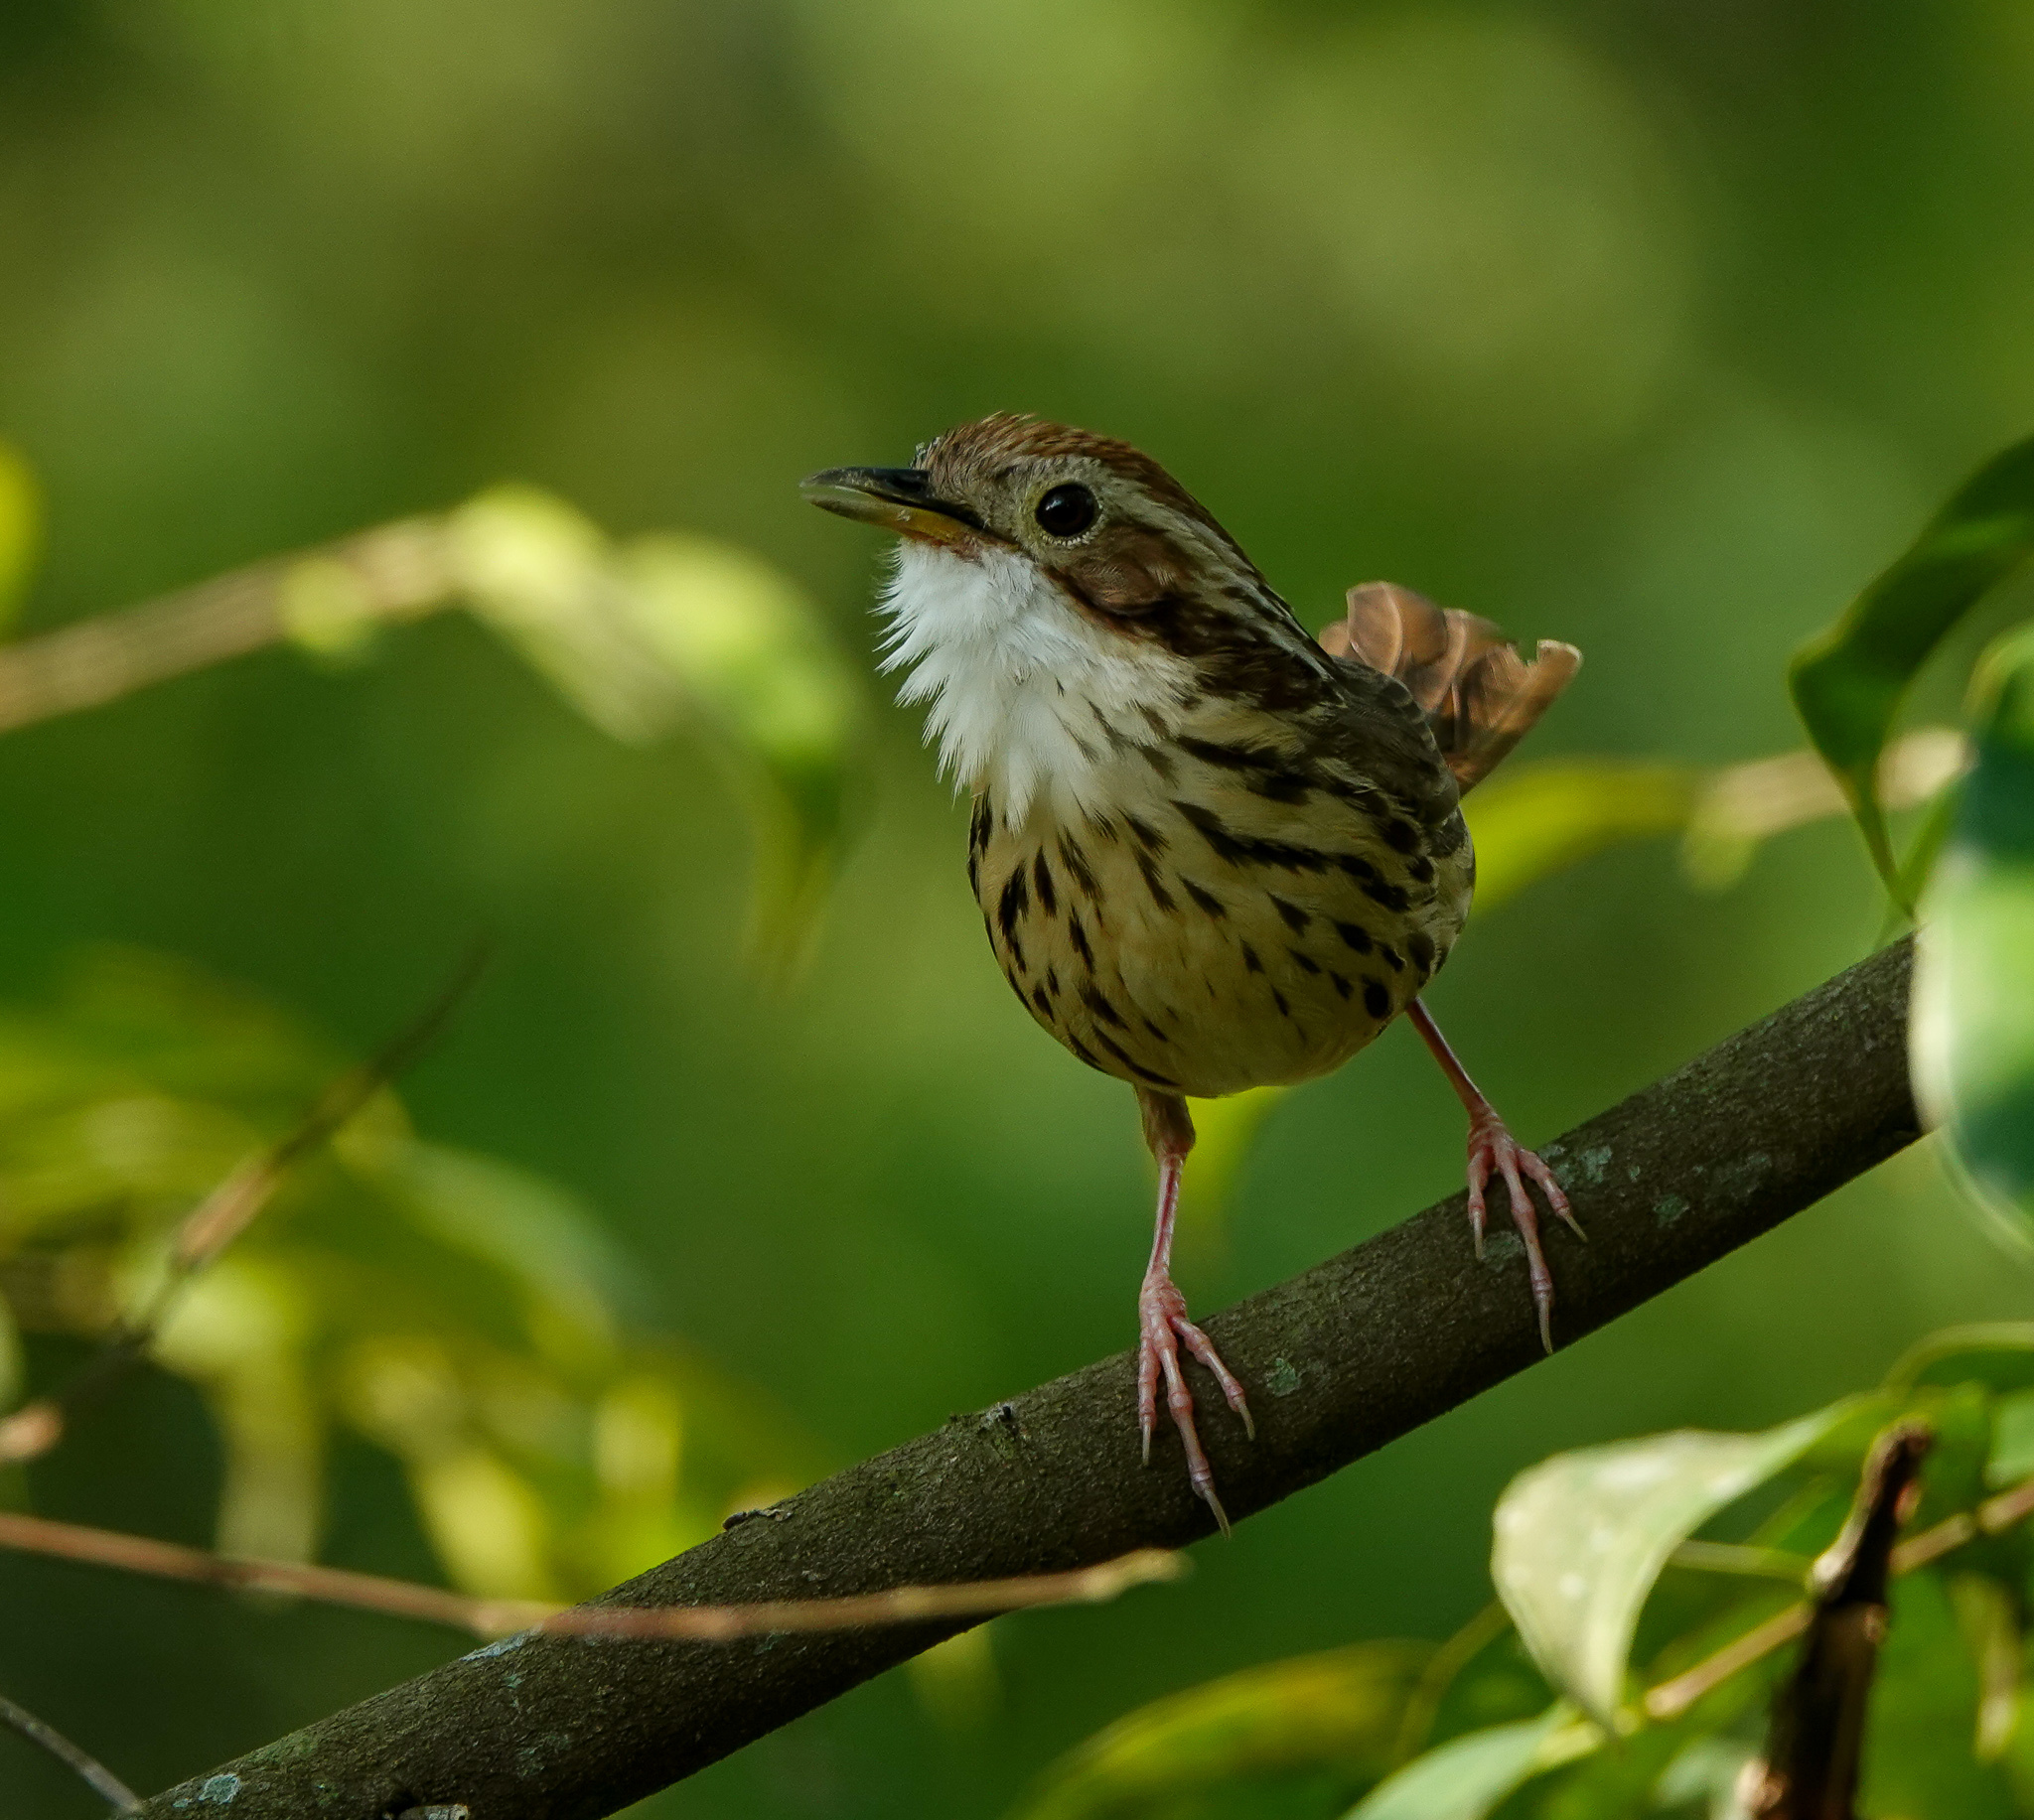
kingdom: Animalia
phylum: Chordata
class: Aves
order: Passeriformes
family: Pellorneidae
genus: Pellorneum
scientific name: Pellorneum ruficeps
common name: Puff-throated babbler
